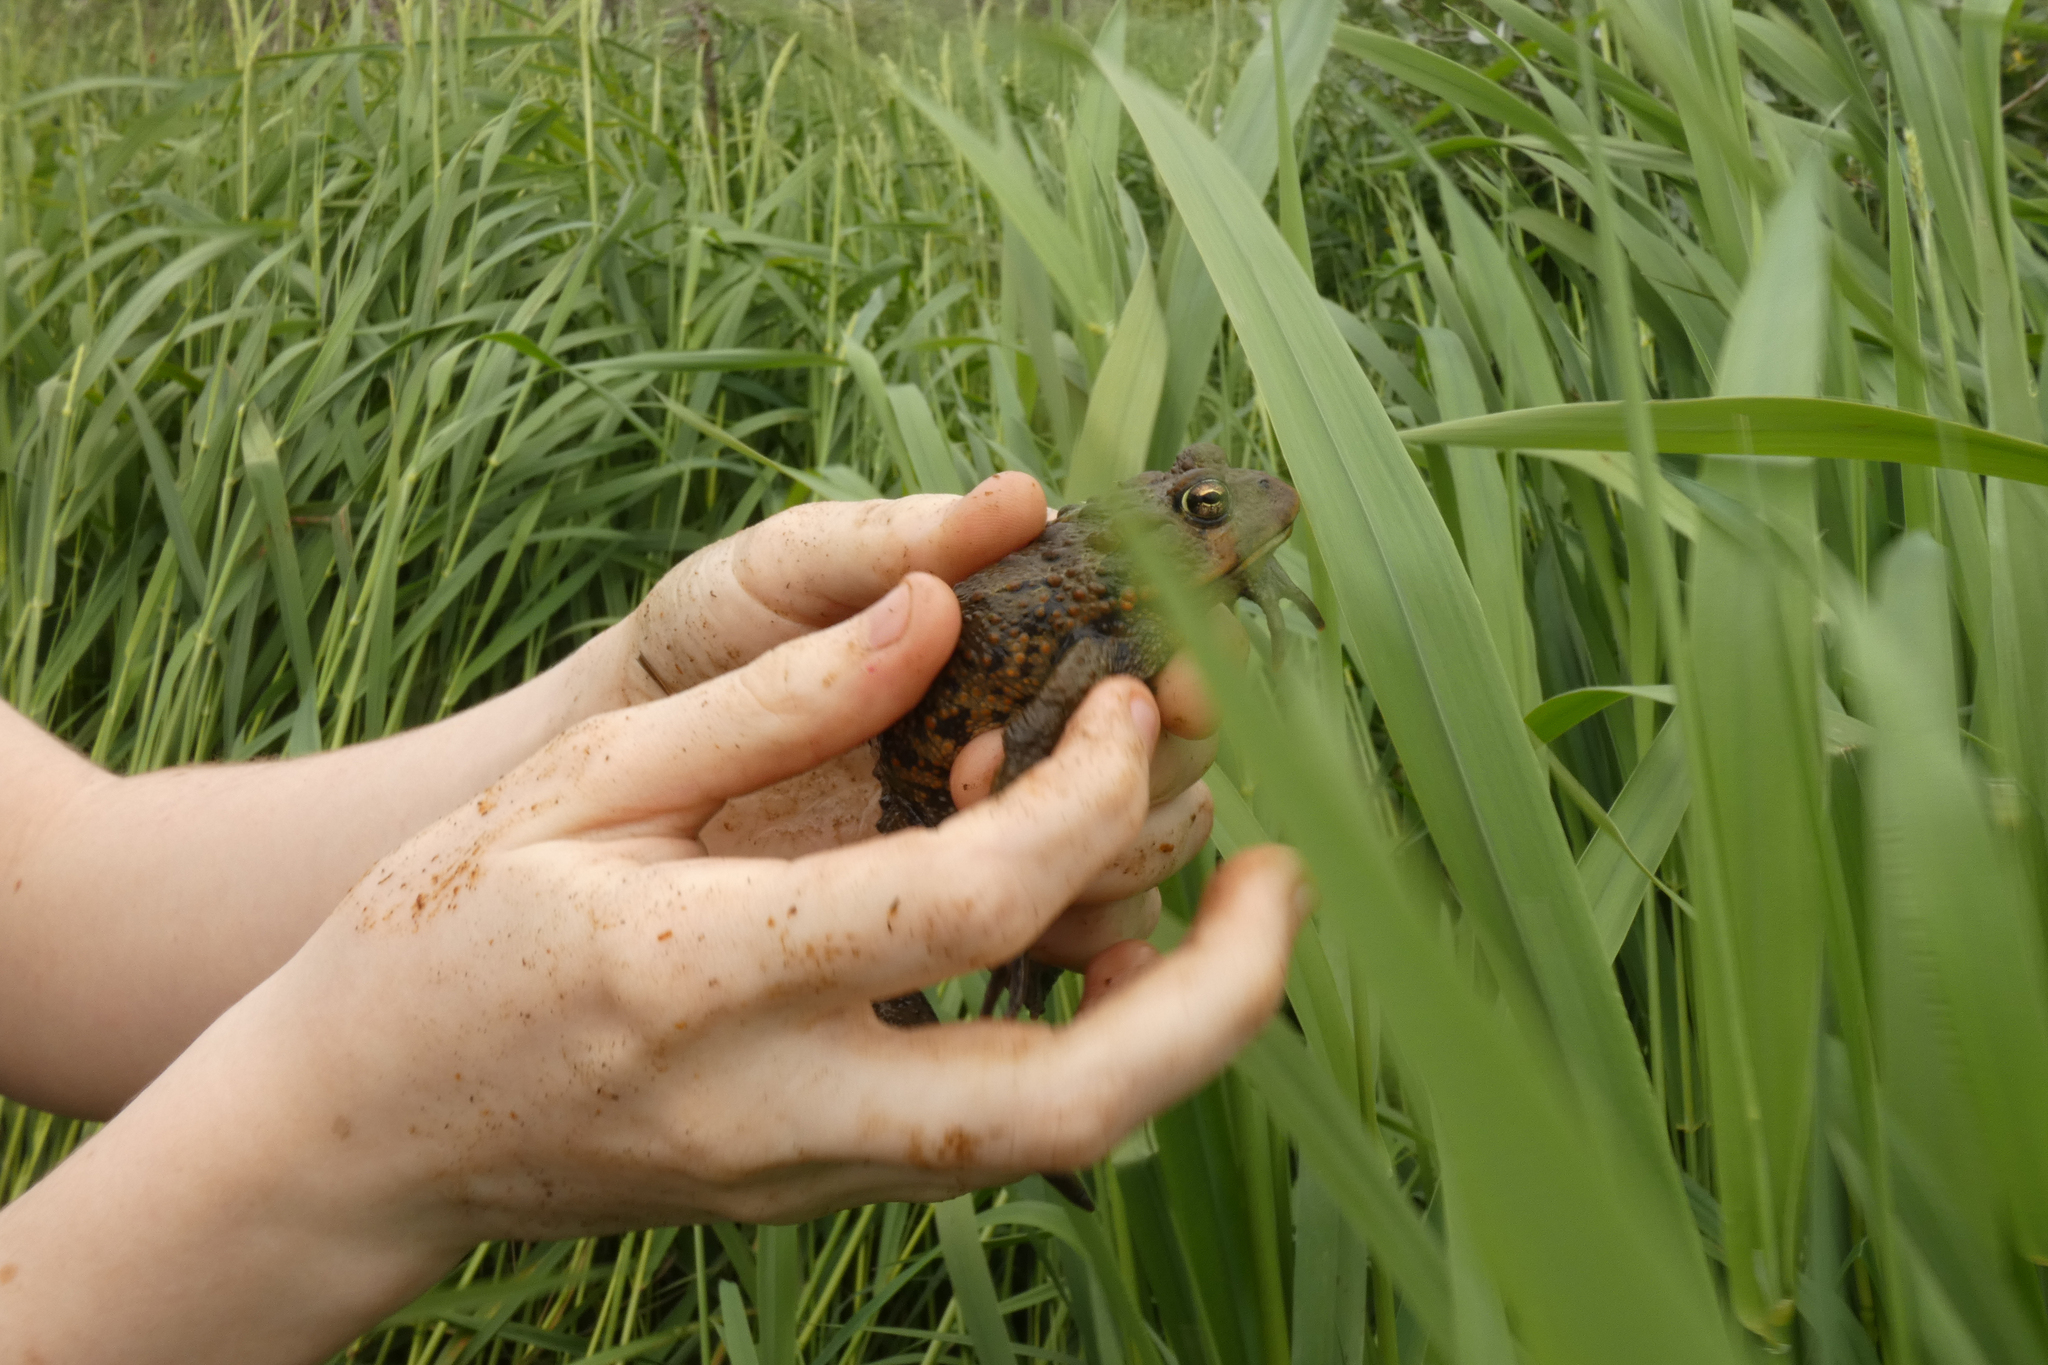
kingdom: Animalia
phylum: Chordata
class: Amphibia
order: Anura
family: Bufonidae
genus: Anaxyrus
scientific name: Anaxyrus boreas
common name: Western toad
